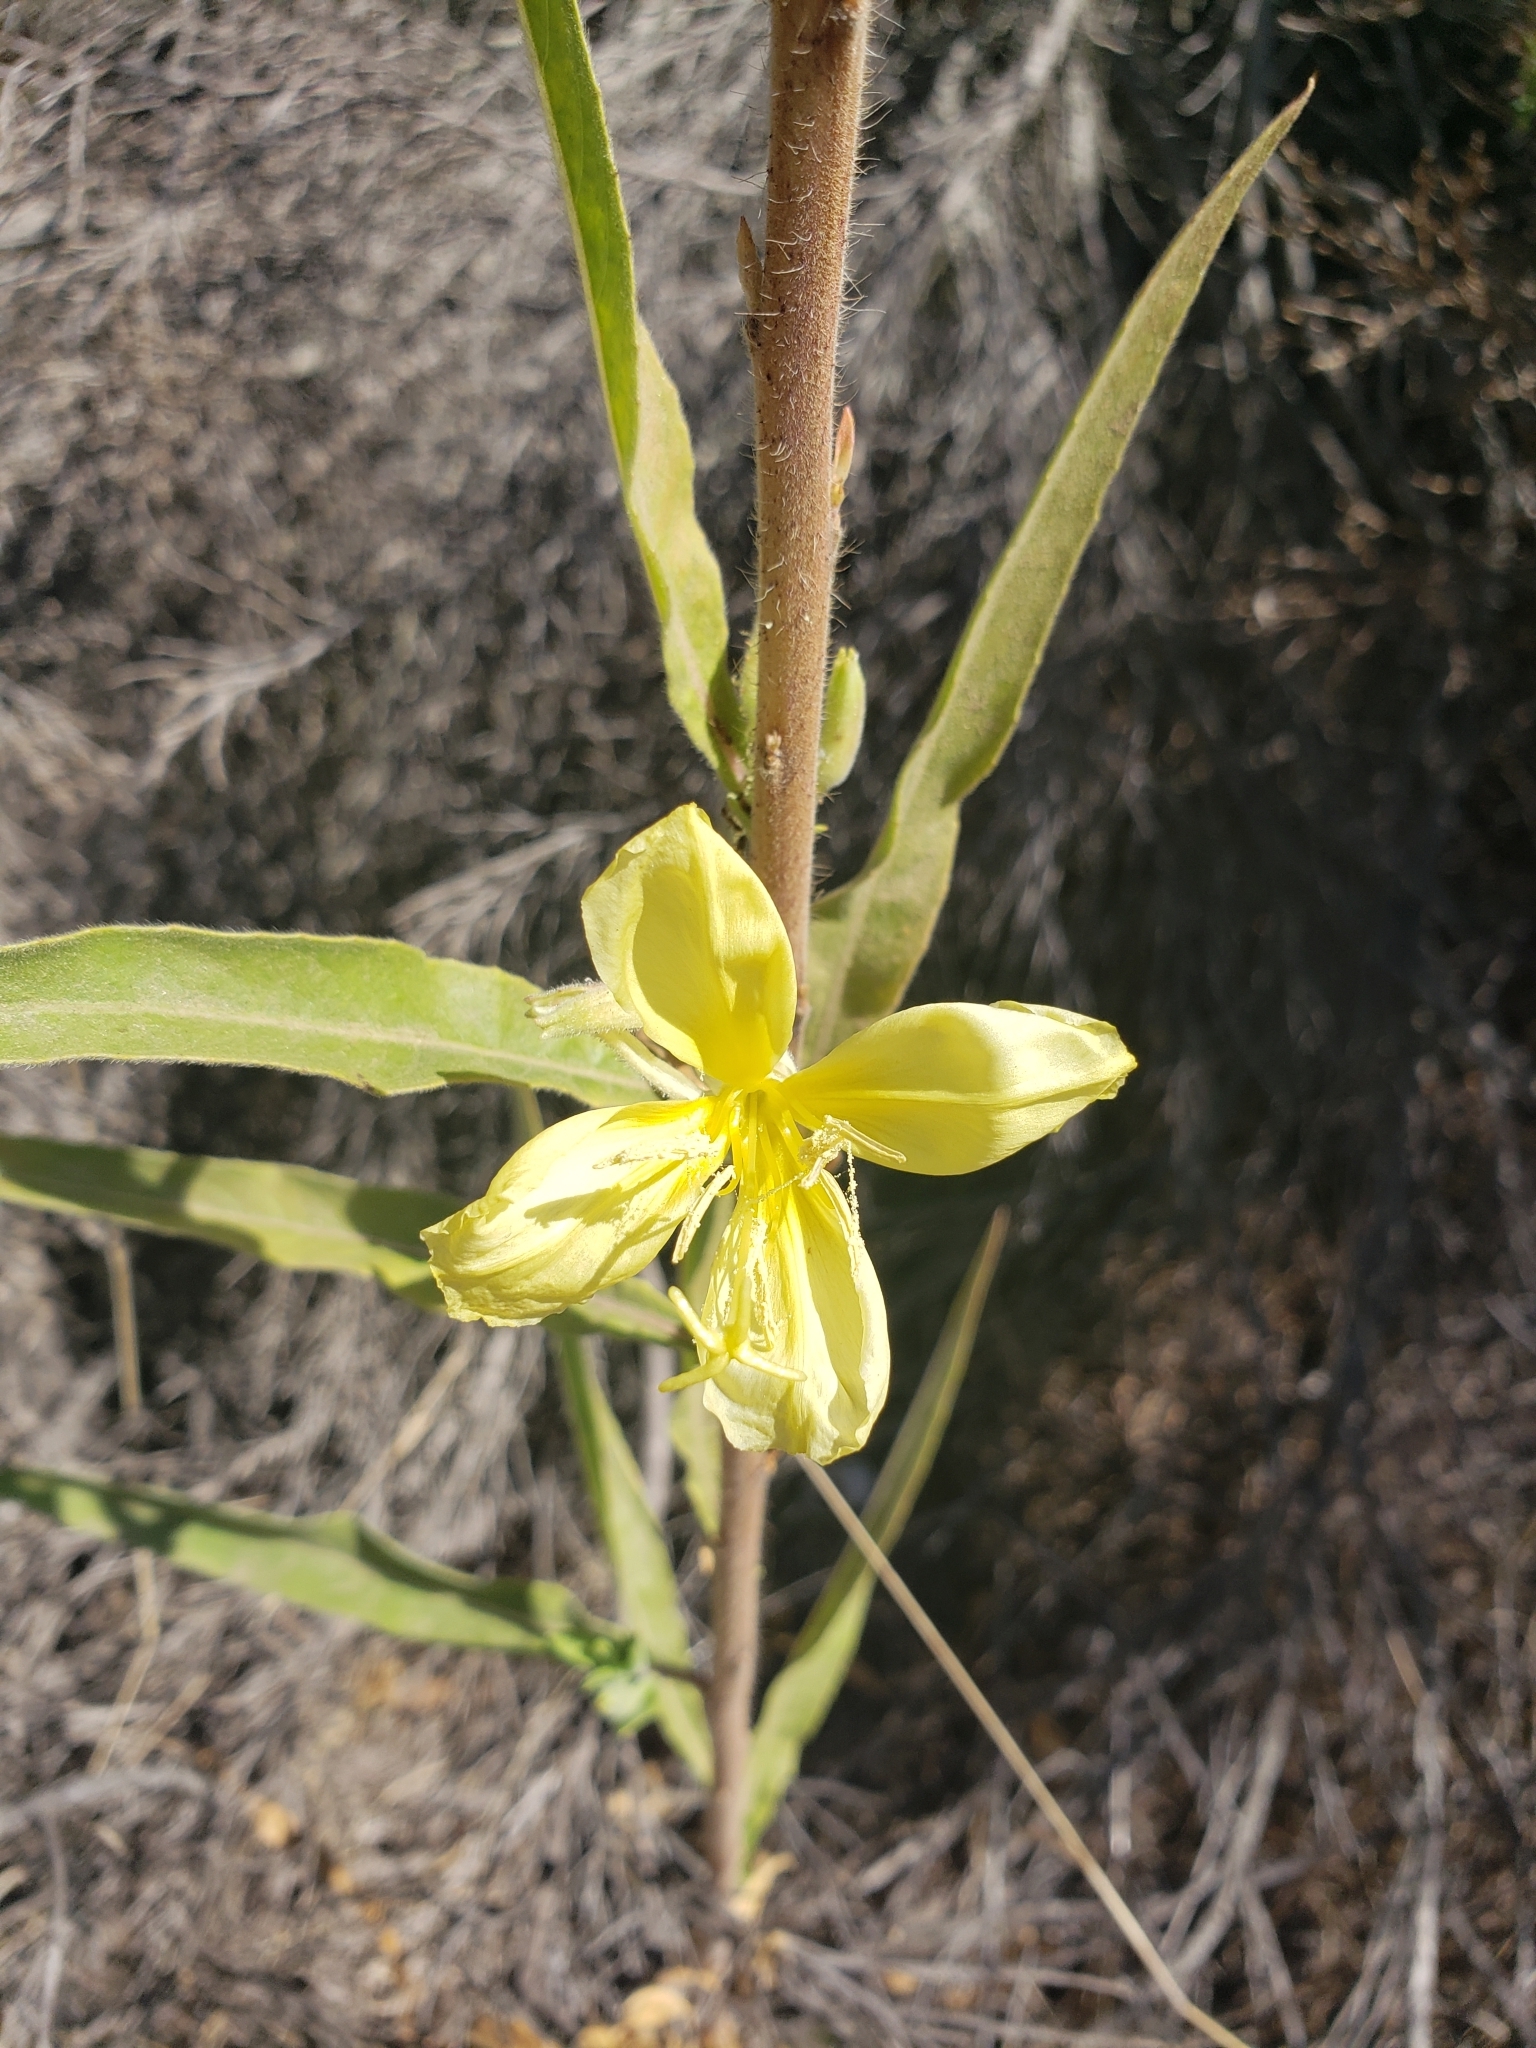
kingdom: Plantae
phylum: Tracheophyta
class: Magnoliopsida
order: Myrtales
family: Onagraceae
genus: Oenothera
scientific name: Oenothera elata
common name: Hooker's evening-primrose
